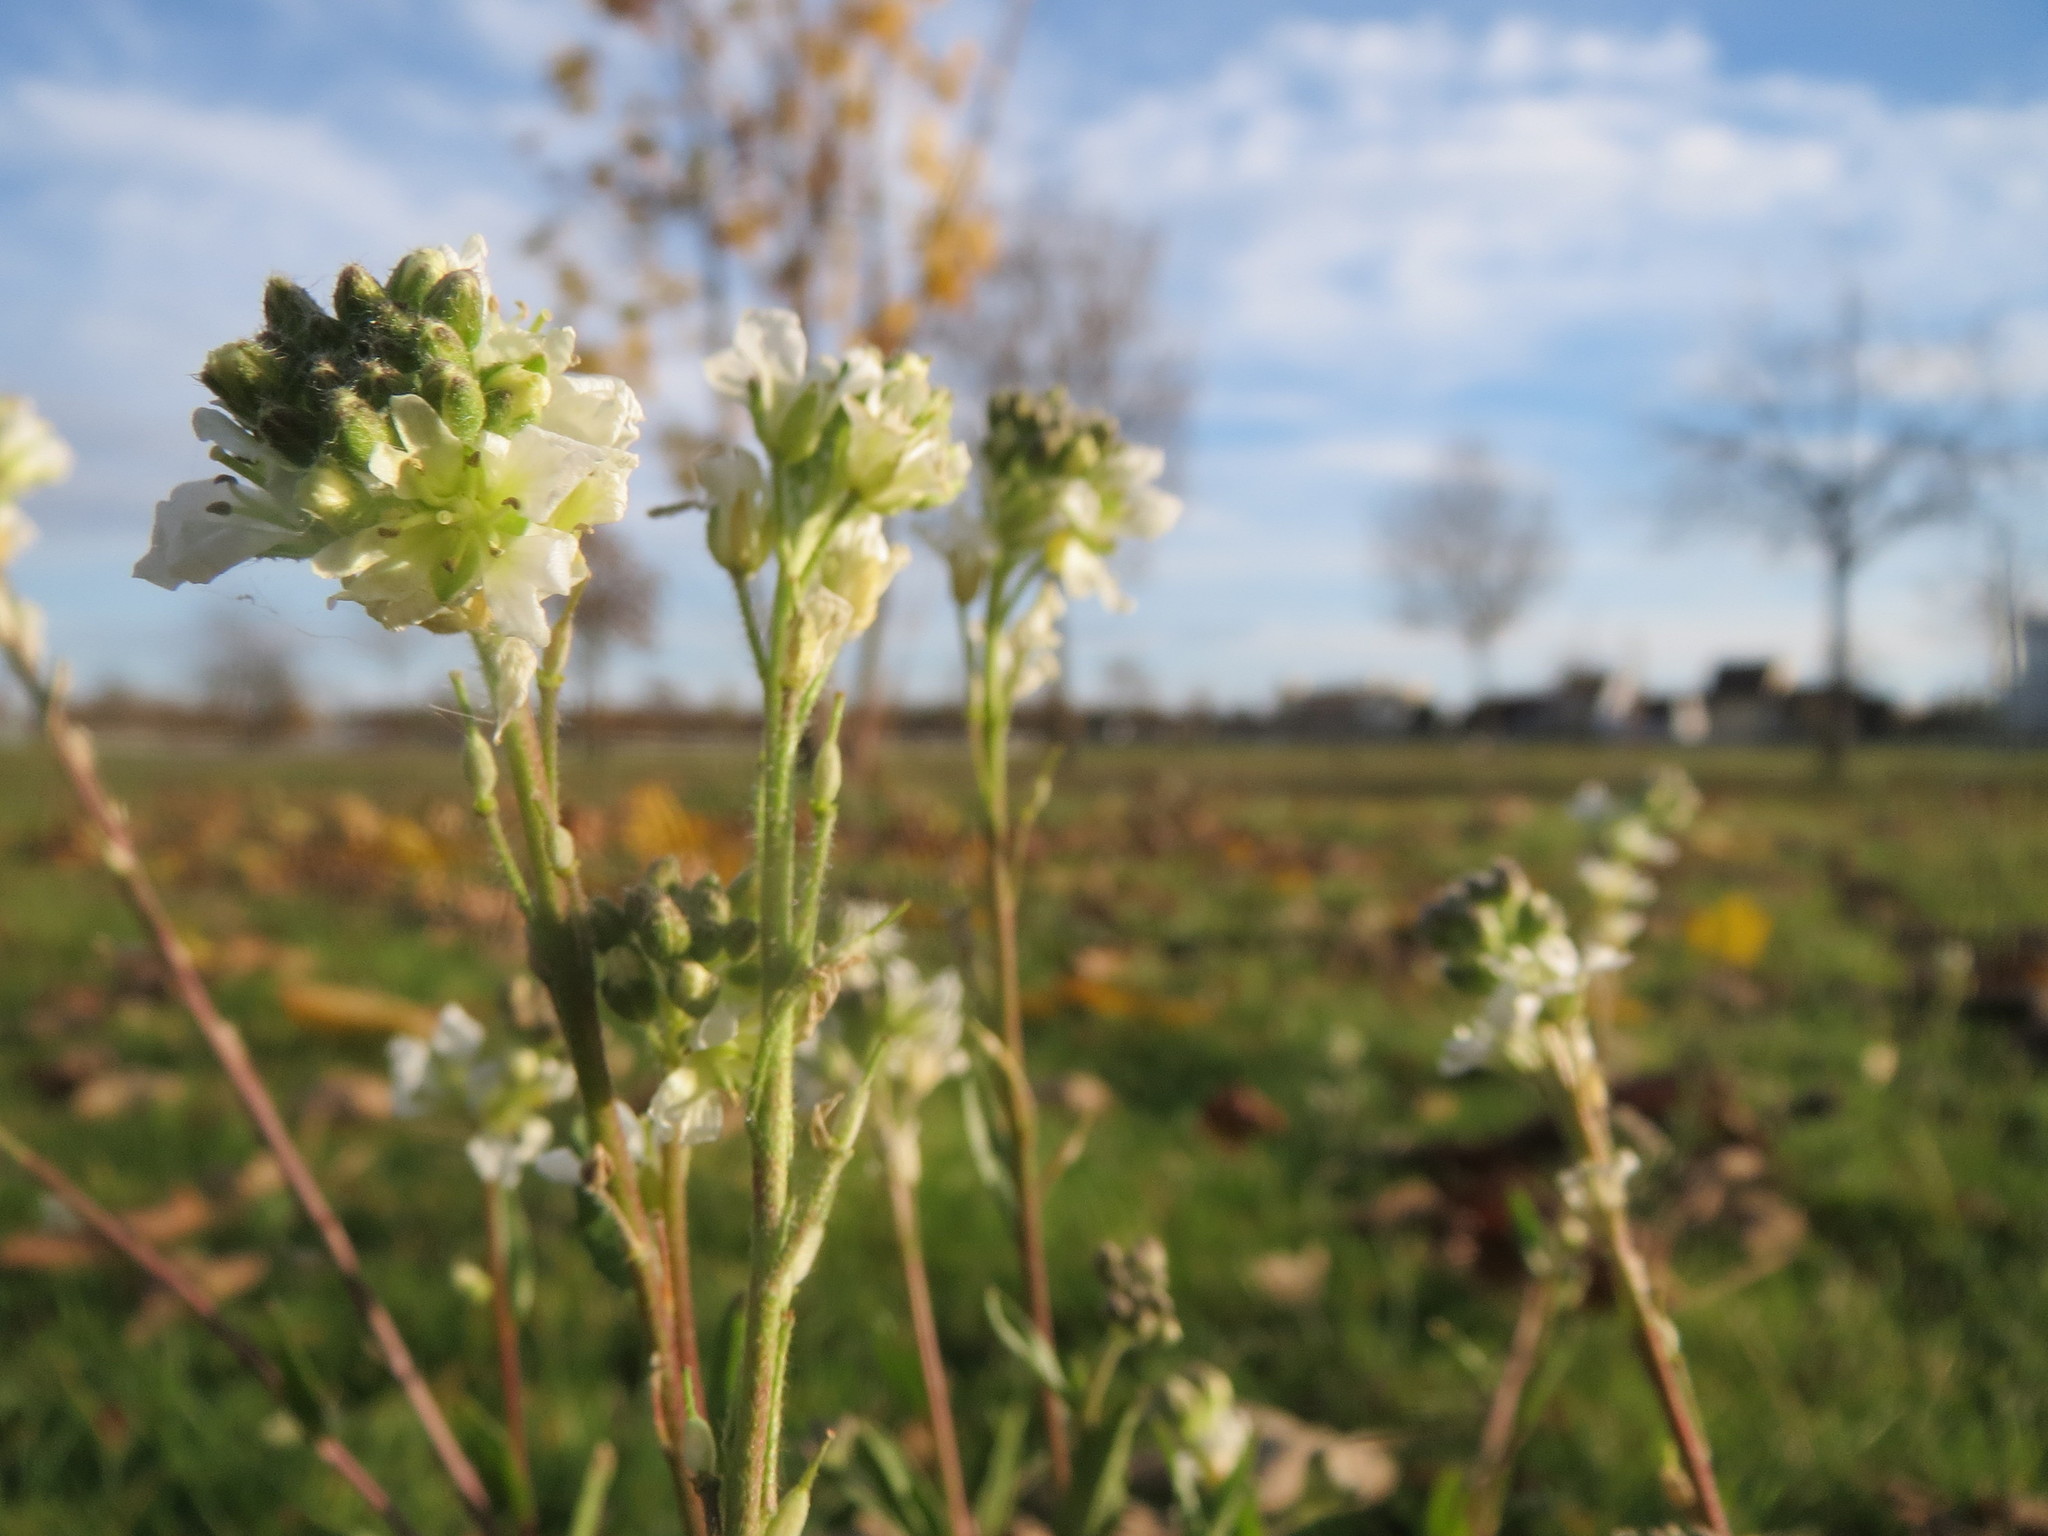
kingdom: Plantae
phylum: Tracheophyta
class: Magnoliopsida
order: Brassicales
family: Brassicaceae
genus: Berteroa
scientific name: Berteroa incana
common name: Hoary alison
